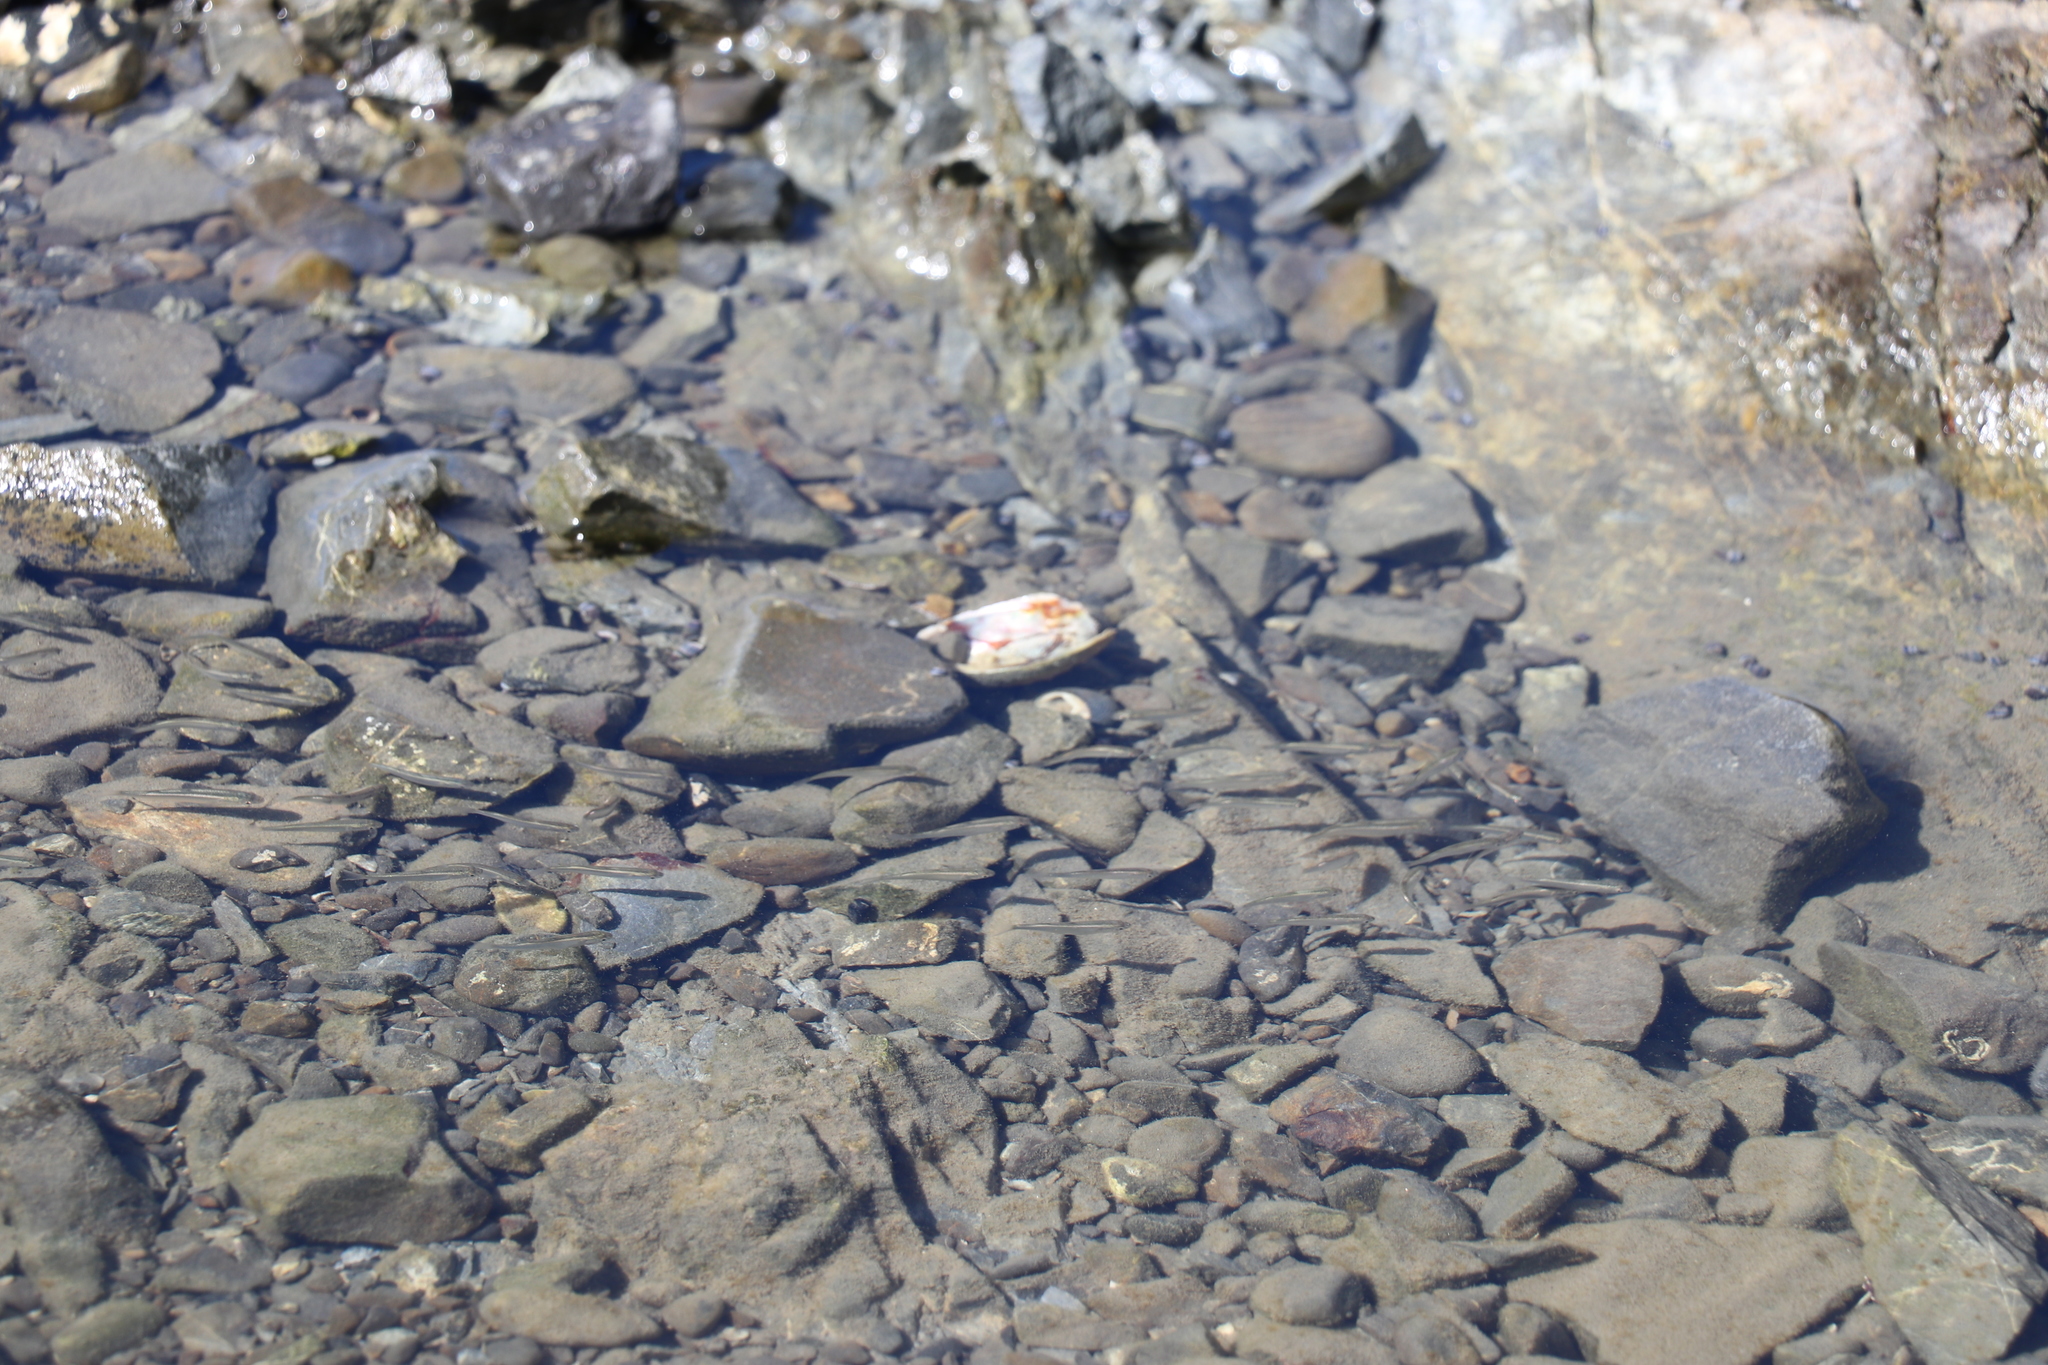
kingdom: Animalia
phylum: Chordata
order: Mugiliformes
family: Mugilidae
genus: Aldrichetta
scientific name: Aldrichetta forsteri
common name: Yellow-eye mullet
